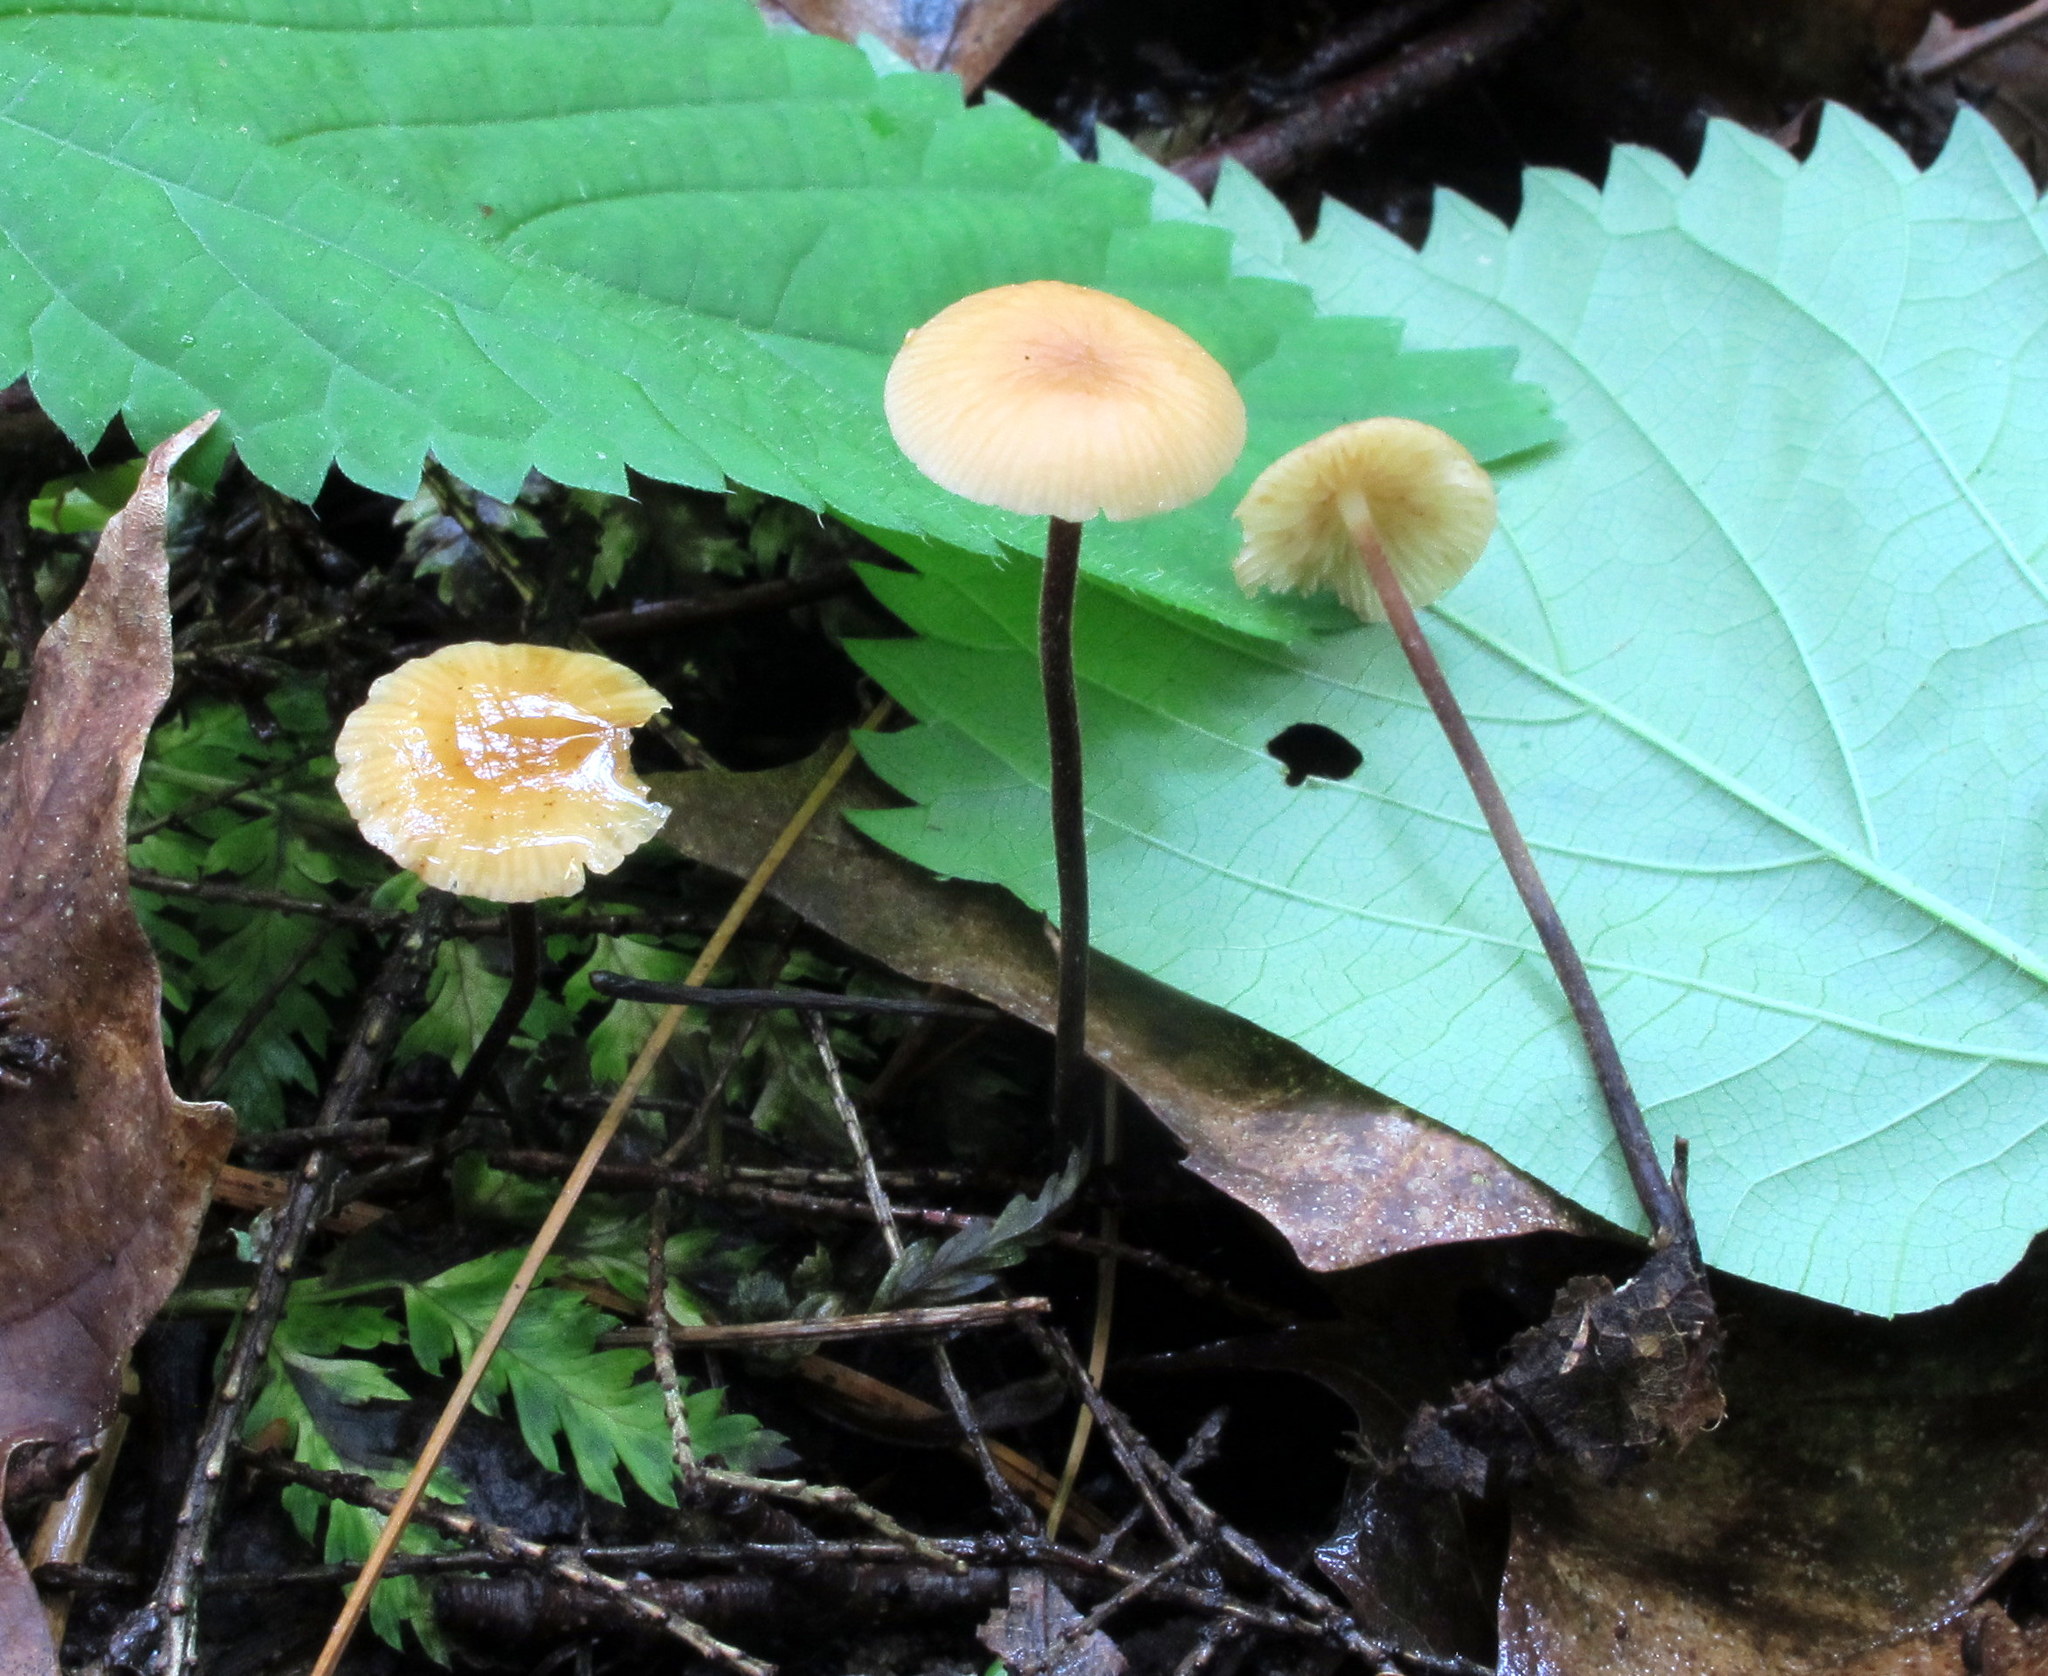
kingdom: Fungi
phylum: Basidiomycota
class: Agaricomycetes
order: Agaricales
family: Physalacriaceae
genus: Rhizomarasmius
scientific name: Rhizomarasmius pyrrhocephalus
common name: Hairy long stem marasmius
